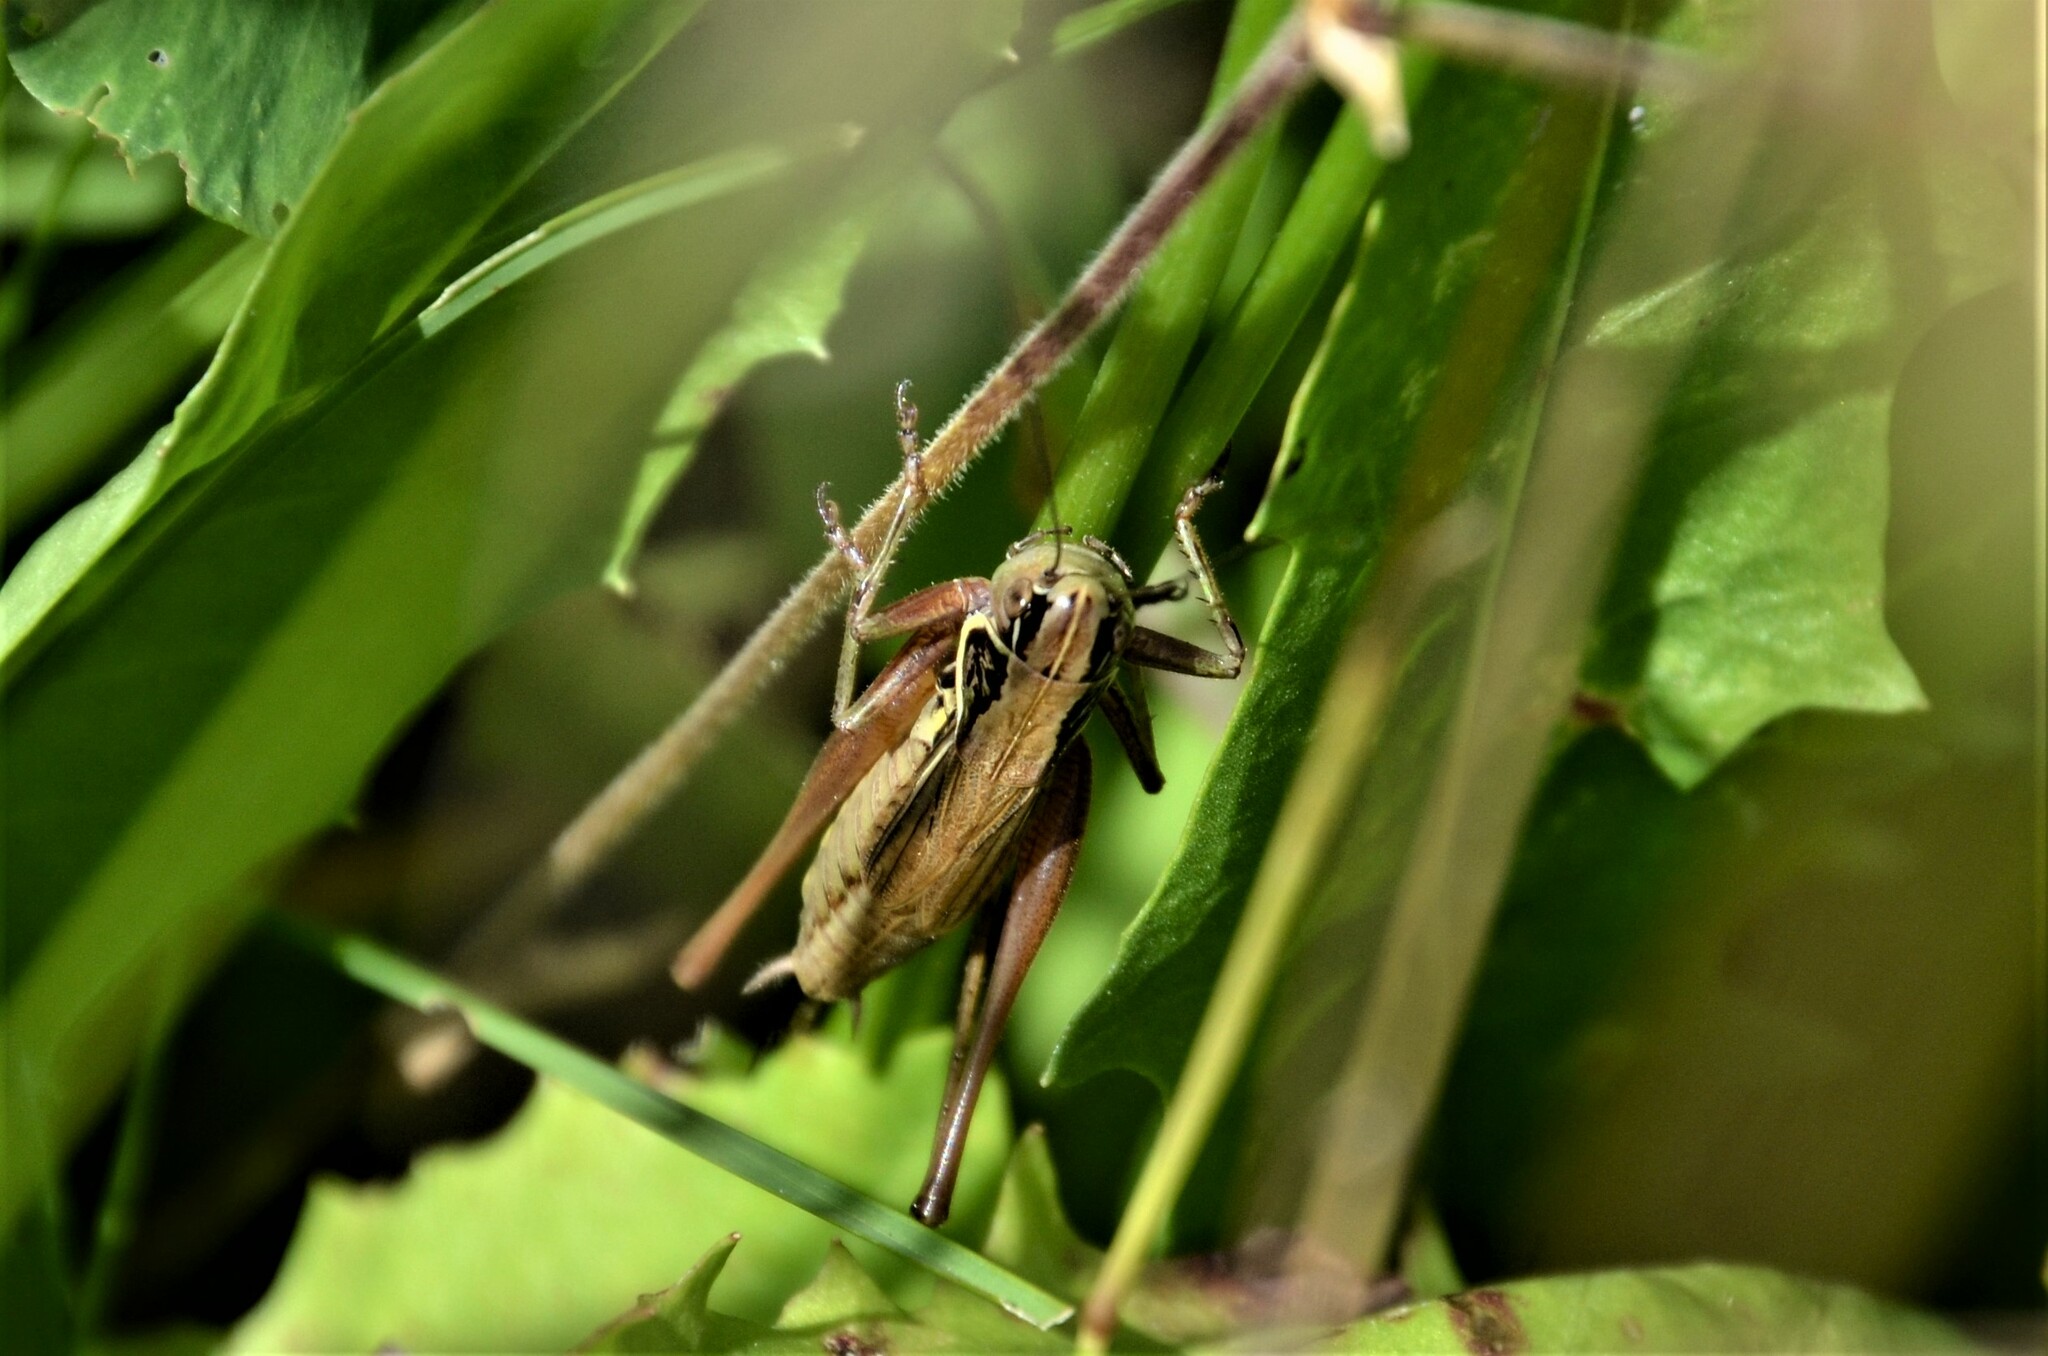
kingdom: Animalia
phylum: Arthropoda
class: Insecta
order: Orthoptera
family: Tettigoniidae
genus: Roeseliana
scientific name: Roeseliana roeselii
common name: Roesel's bush cricket
